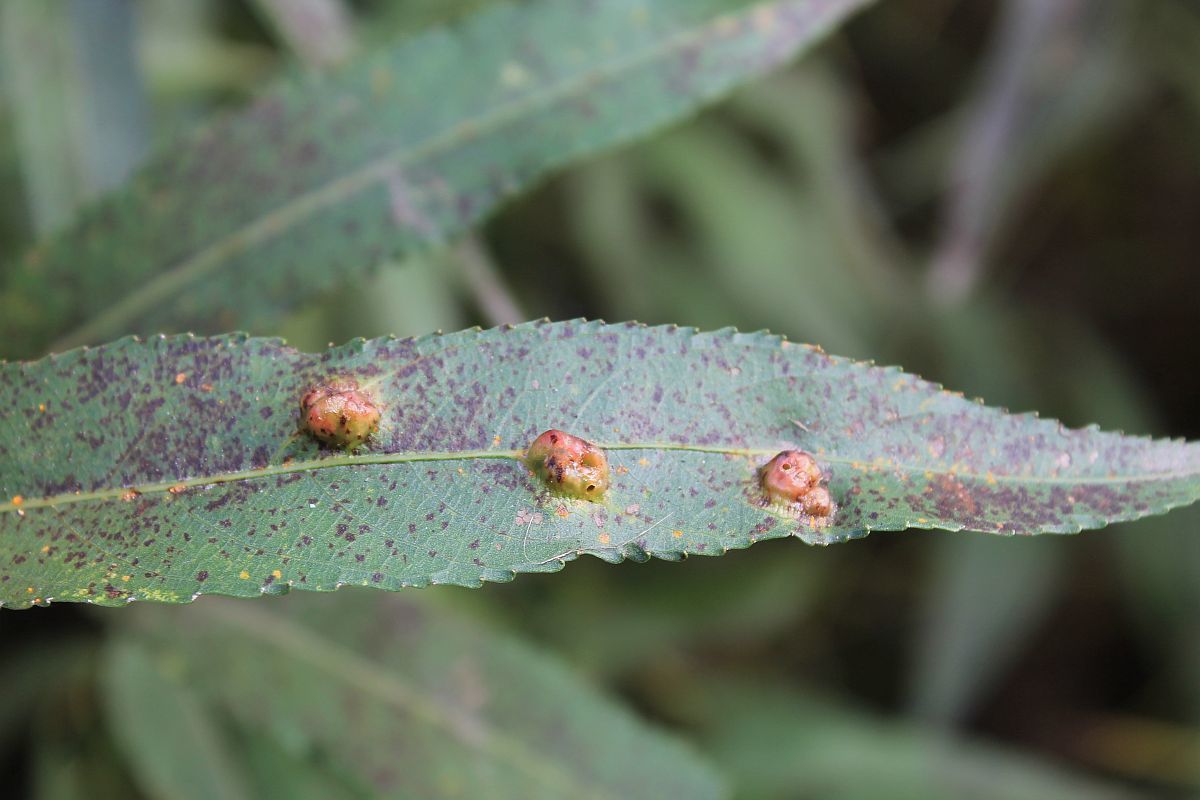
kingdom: Animalia
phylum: Arthropoda
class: Insecta
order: Hymenoptera
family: Tenthredinidae
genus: Pontania
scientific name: Pontania proxima
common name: Common sawfly
